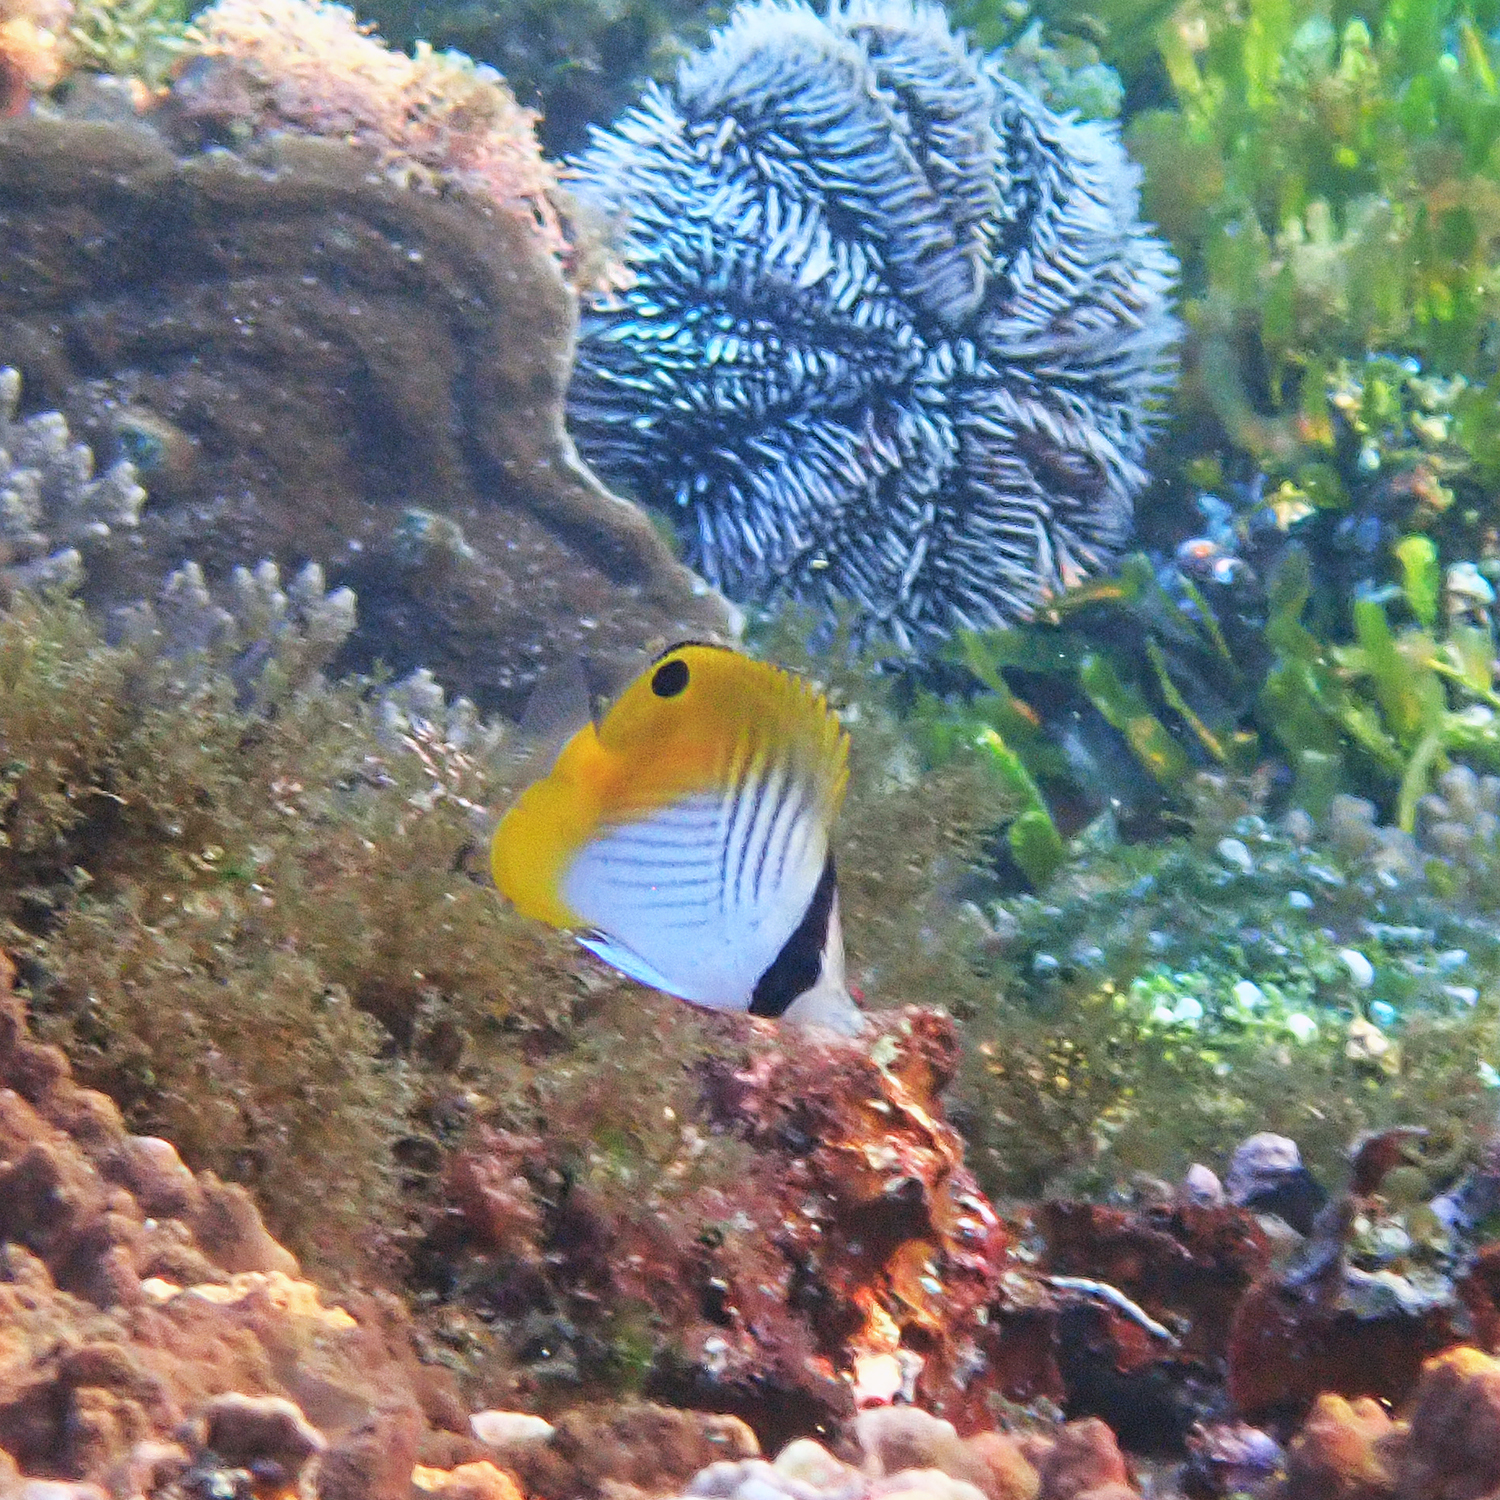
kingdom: Animalia
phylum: Chordata
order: Perciformes
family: Chaetodontidae
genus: Chaetodon
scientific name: Chaetodon auriga
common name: Threadfin butterflyfish
